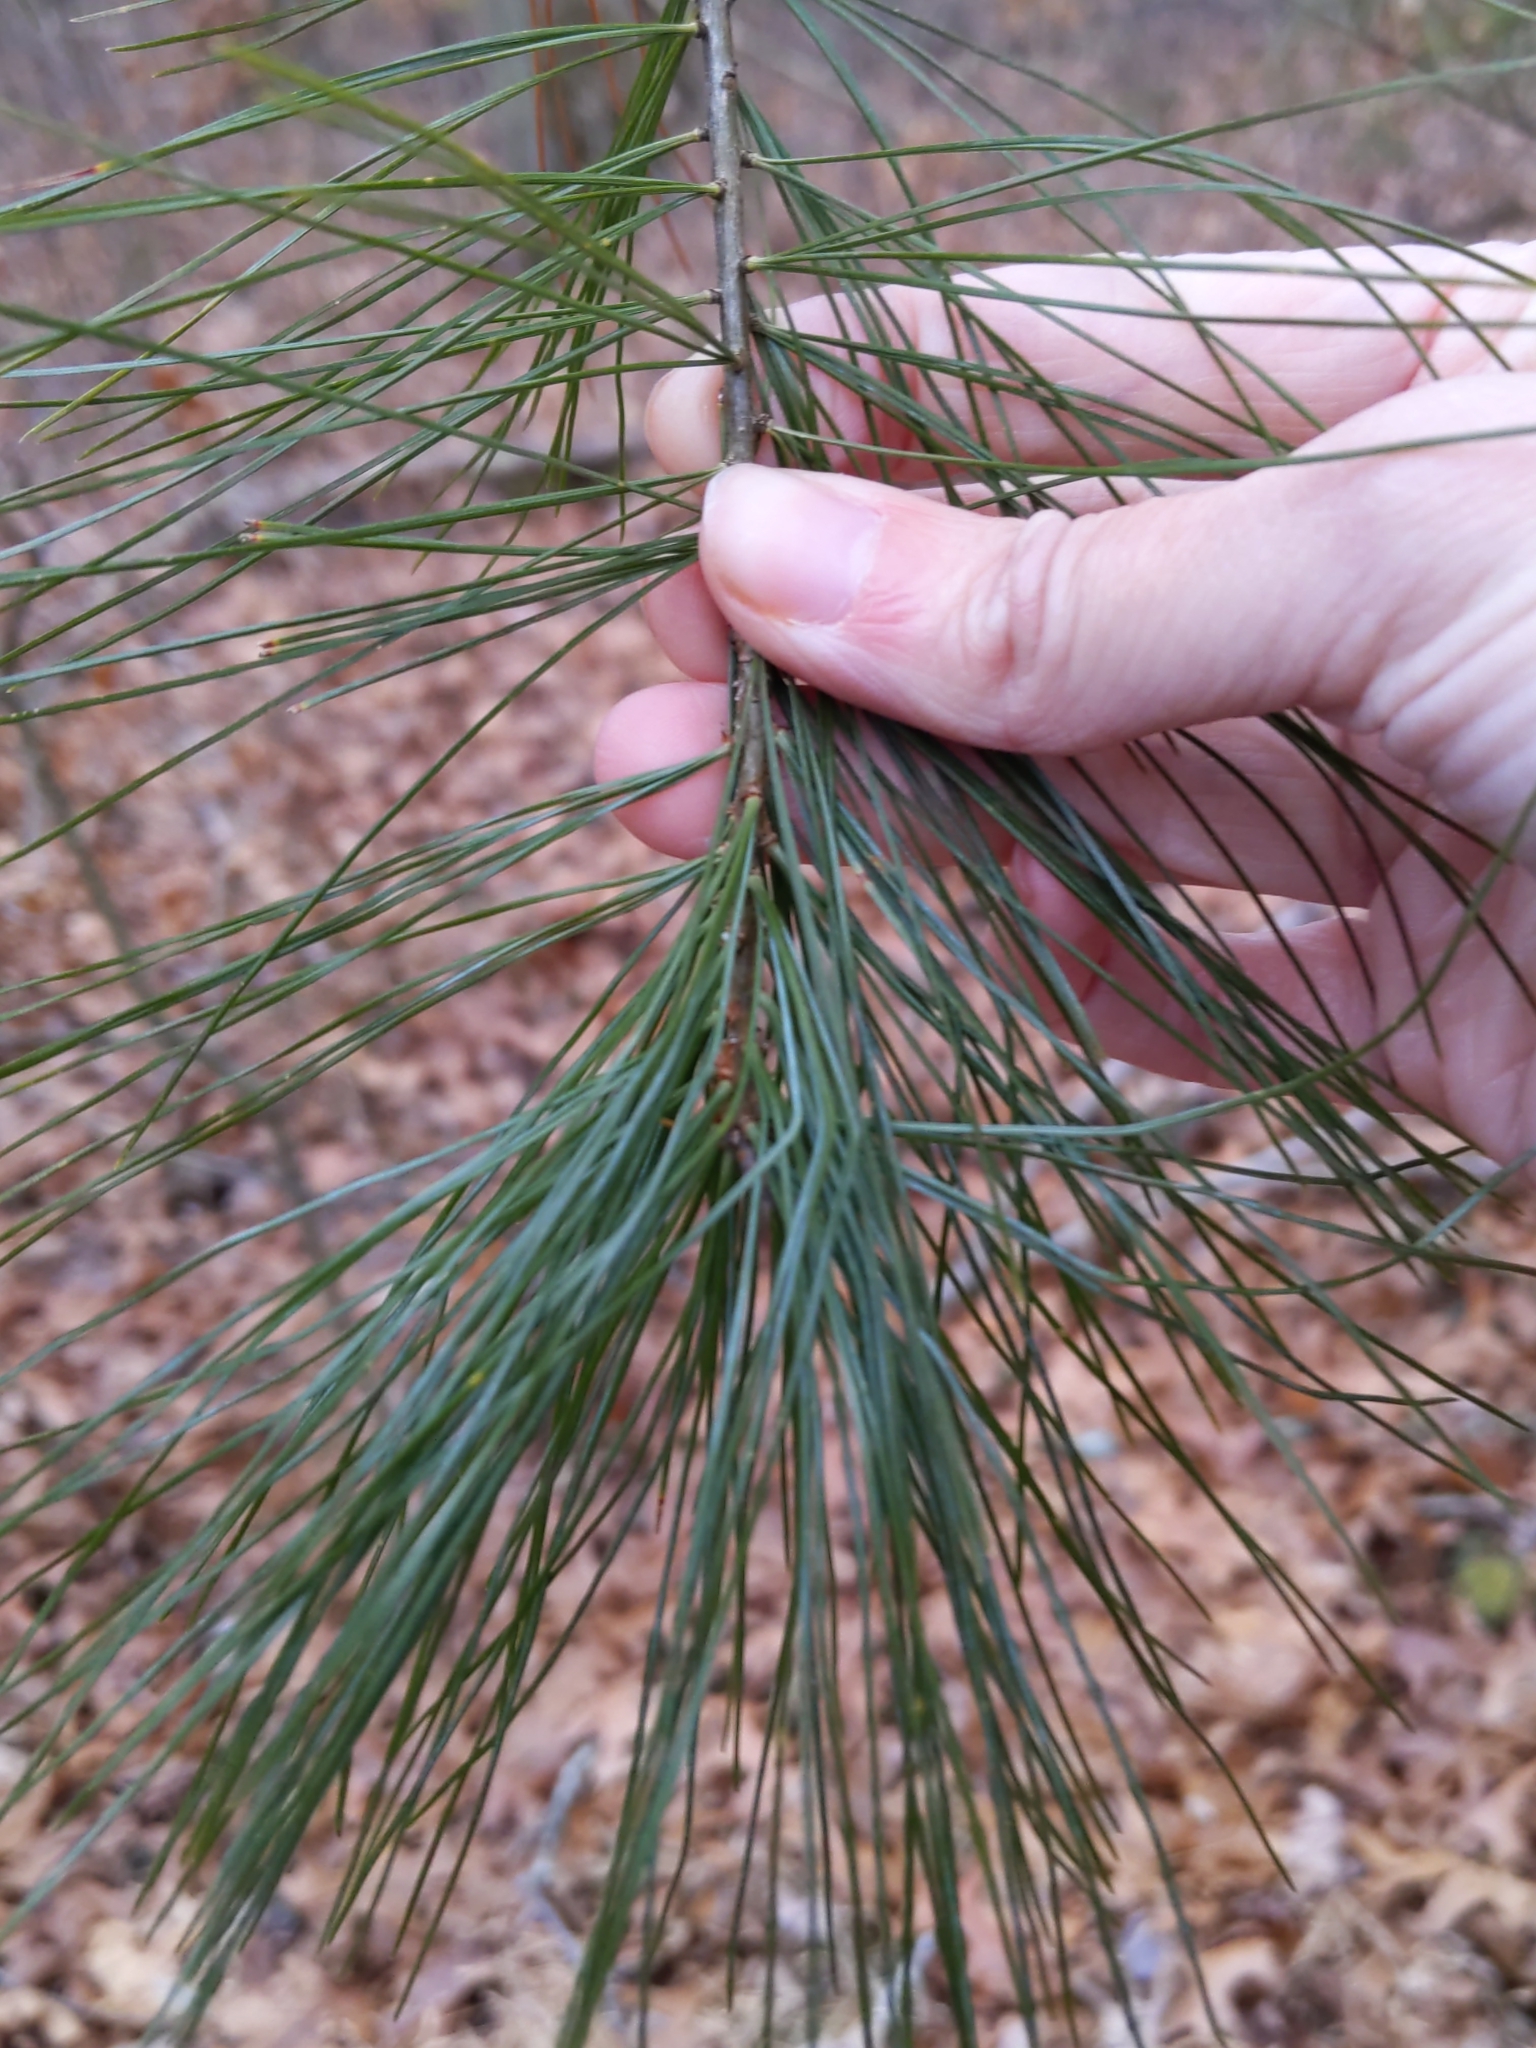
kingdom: Plantae
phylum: Tracheophyta
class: Pinopsida
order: Pinales
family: Pinaceae
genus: Pinus
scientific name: Pinus strobus
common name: Weymouth pine
